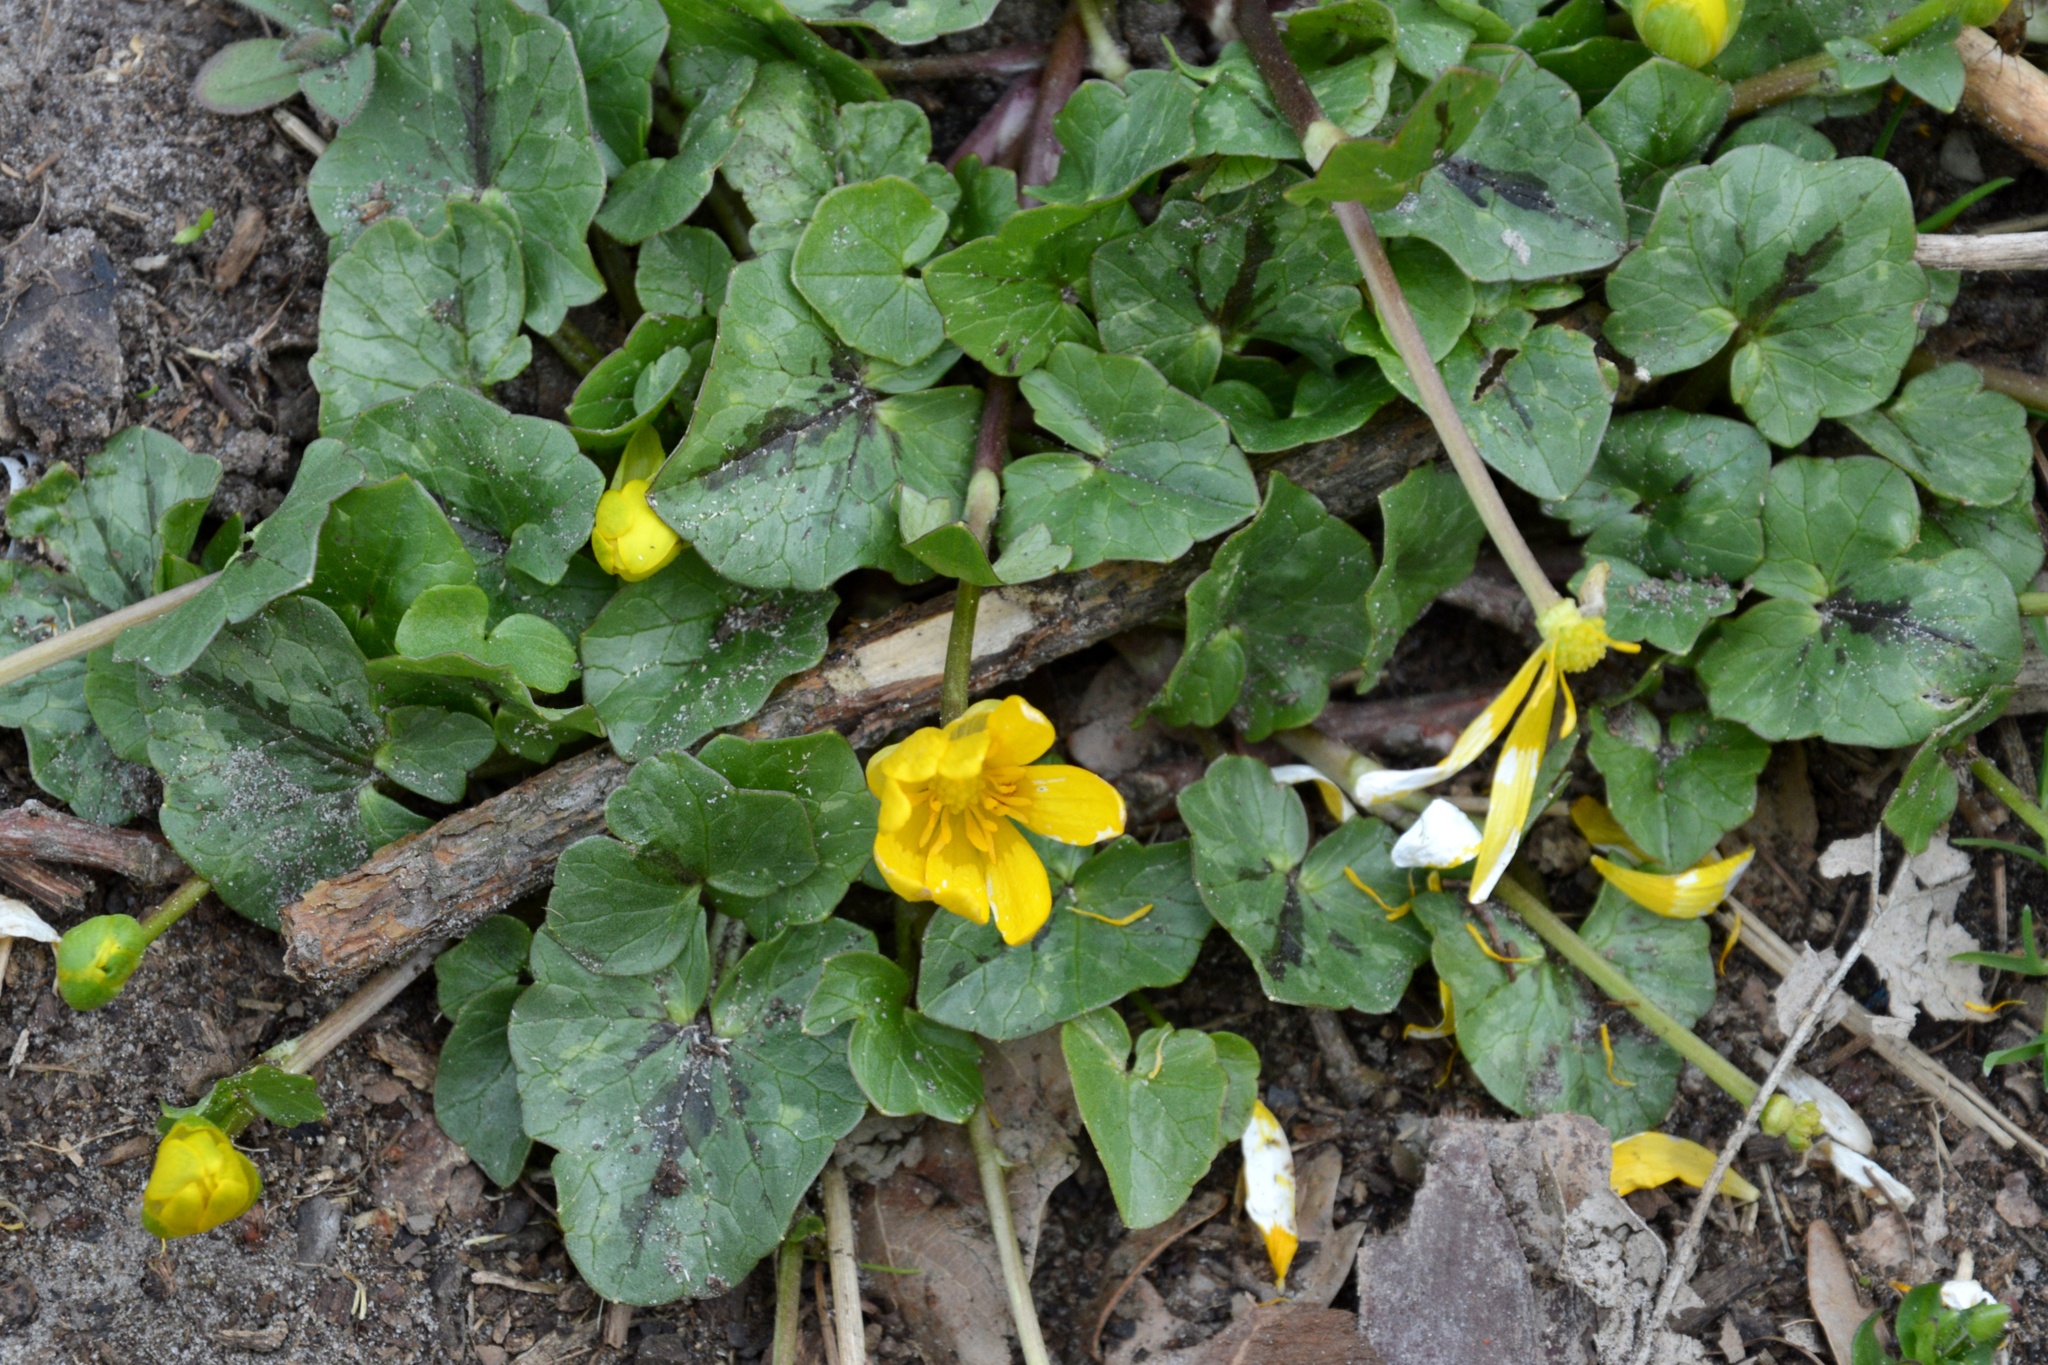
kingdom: Plantae
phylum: Tracheophyta
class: Magnoliopsida
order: Ranunculales
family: Ranunculaceae
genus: Ficaria
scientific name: Ficaria verna
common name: Lesser celandine
